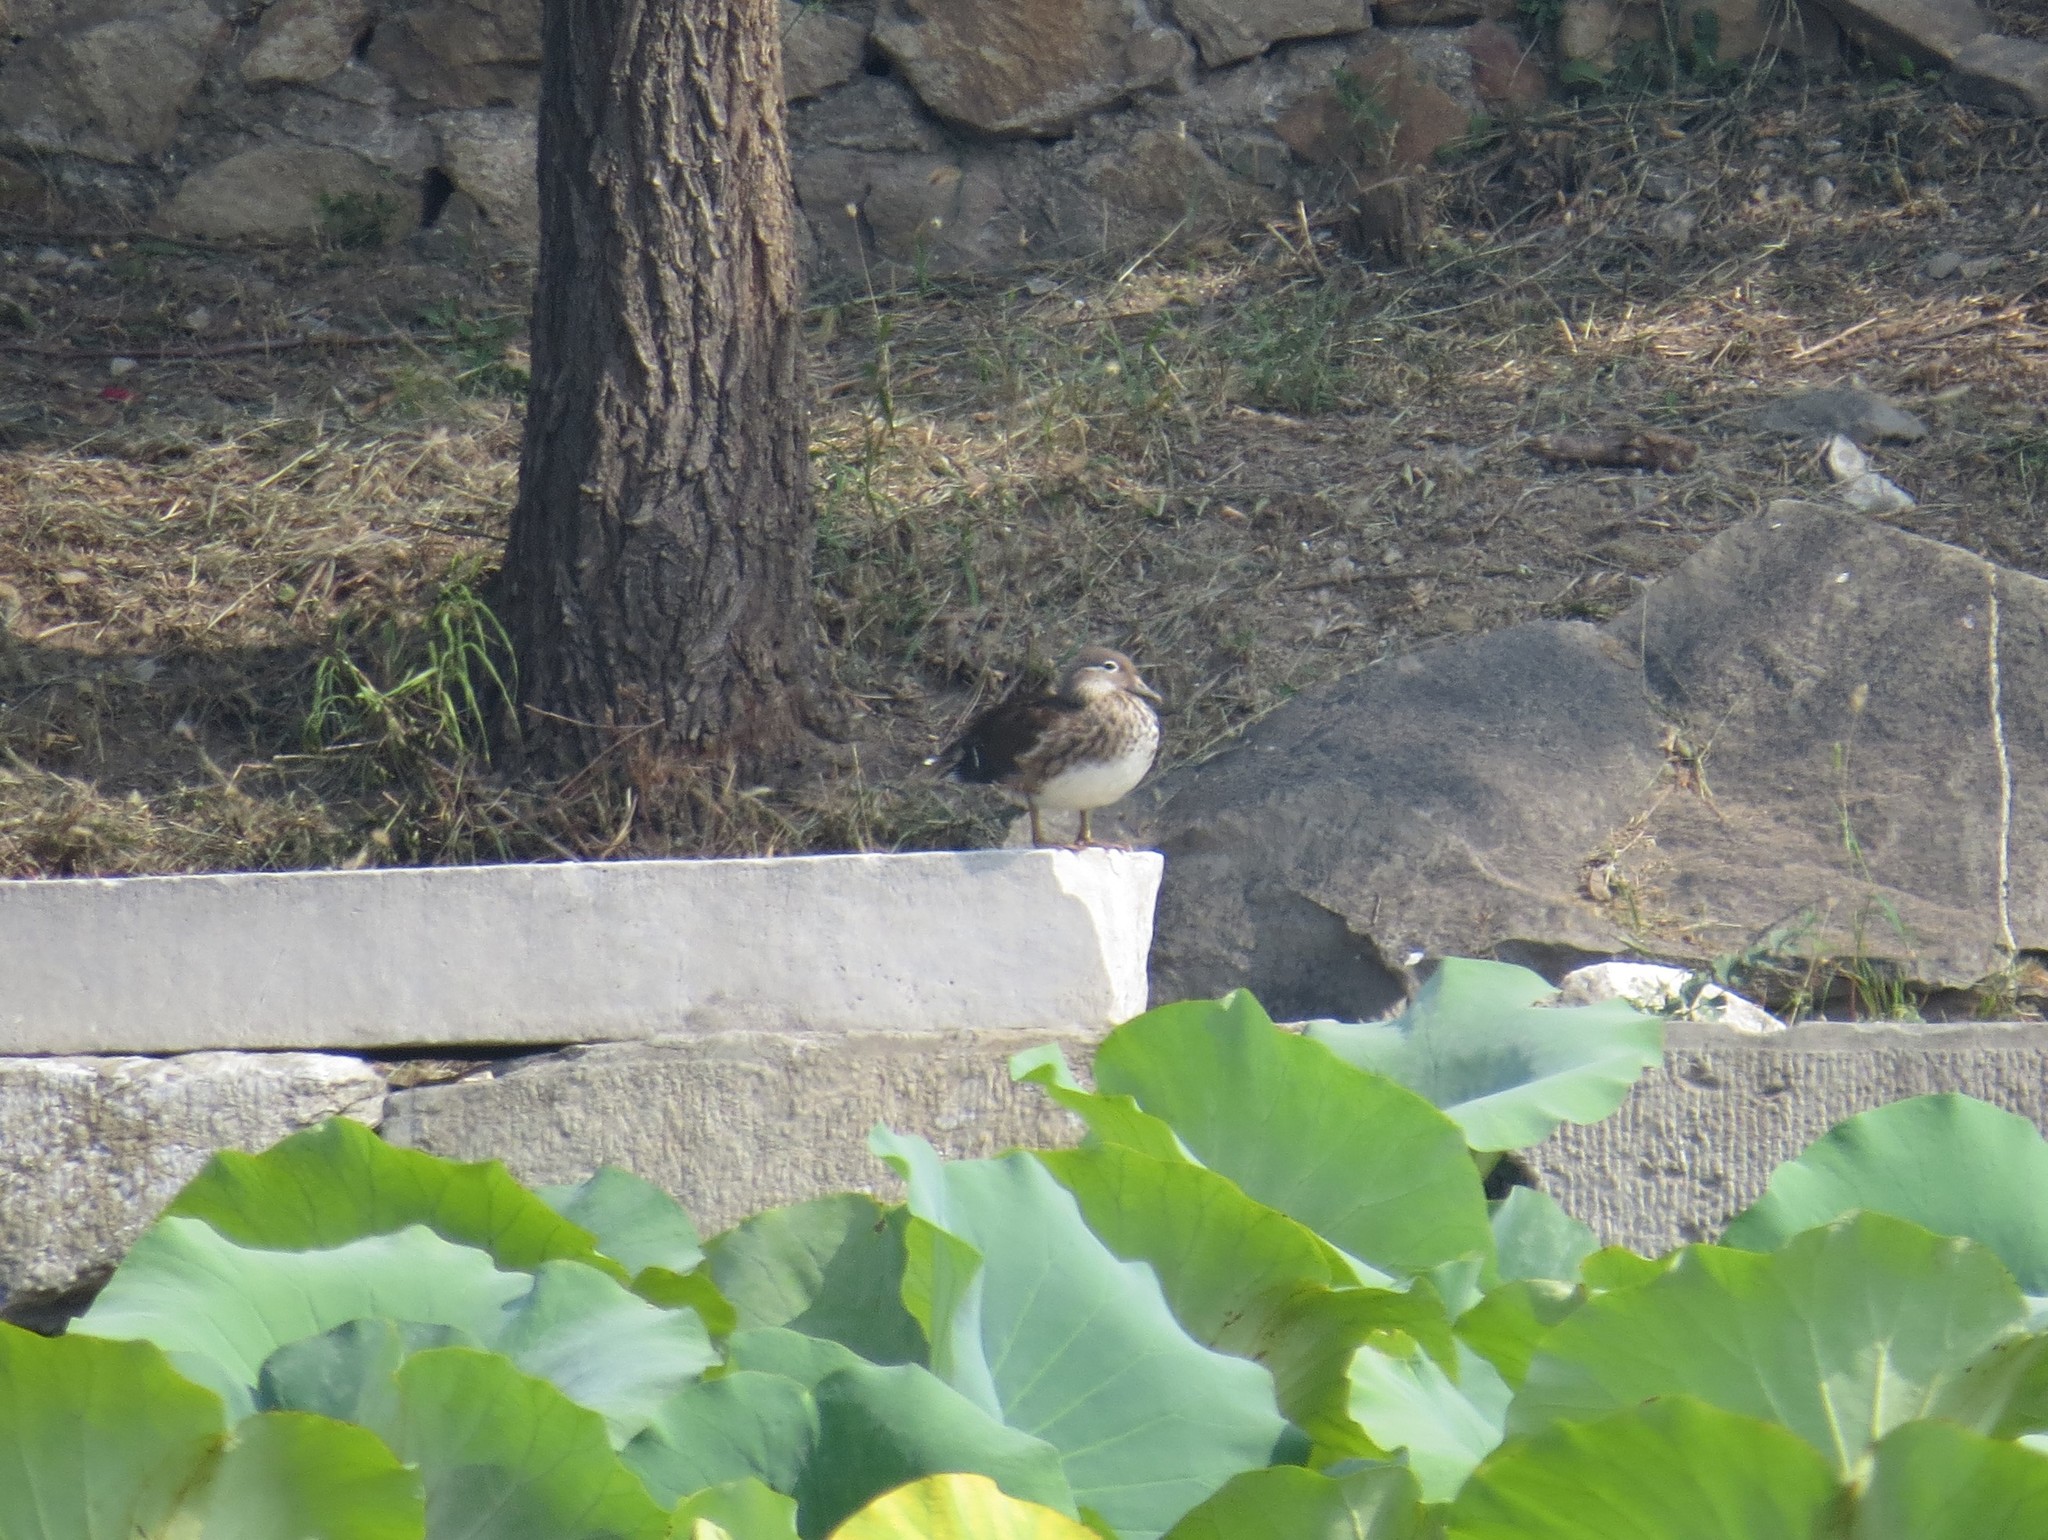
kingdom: Animalia
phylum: Chordata
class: Aves
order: Anseriformes
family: Anatidae
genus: Aix
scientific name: Aix galericulata
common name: Mandarin duck
